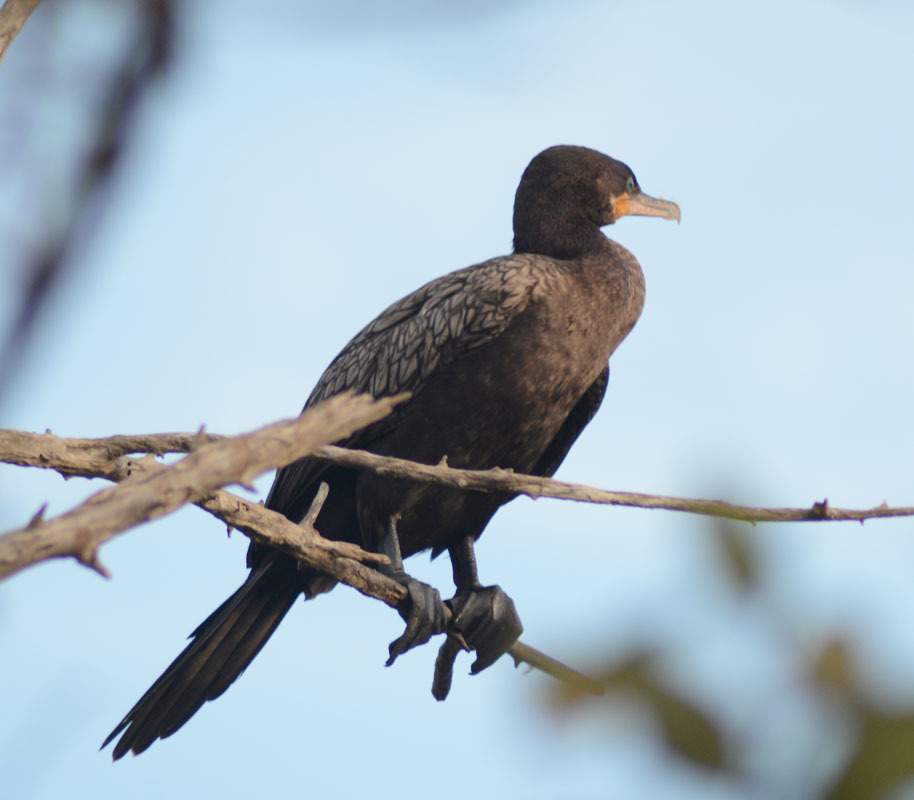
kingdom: Animalia
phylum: Chordata
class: Aves
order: Suliformes
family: Phalacrocoracidae
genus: Phalacrocorax
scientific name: Phalacrocorax brasilianus
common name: Neotropic cormorant
